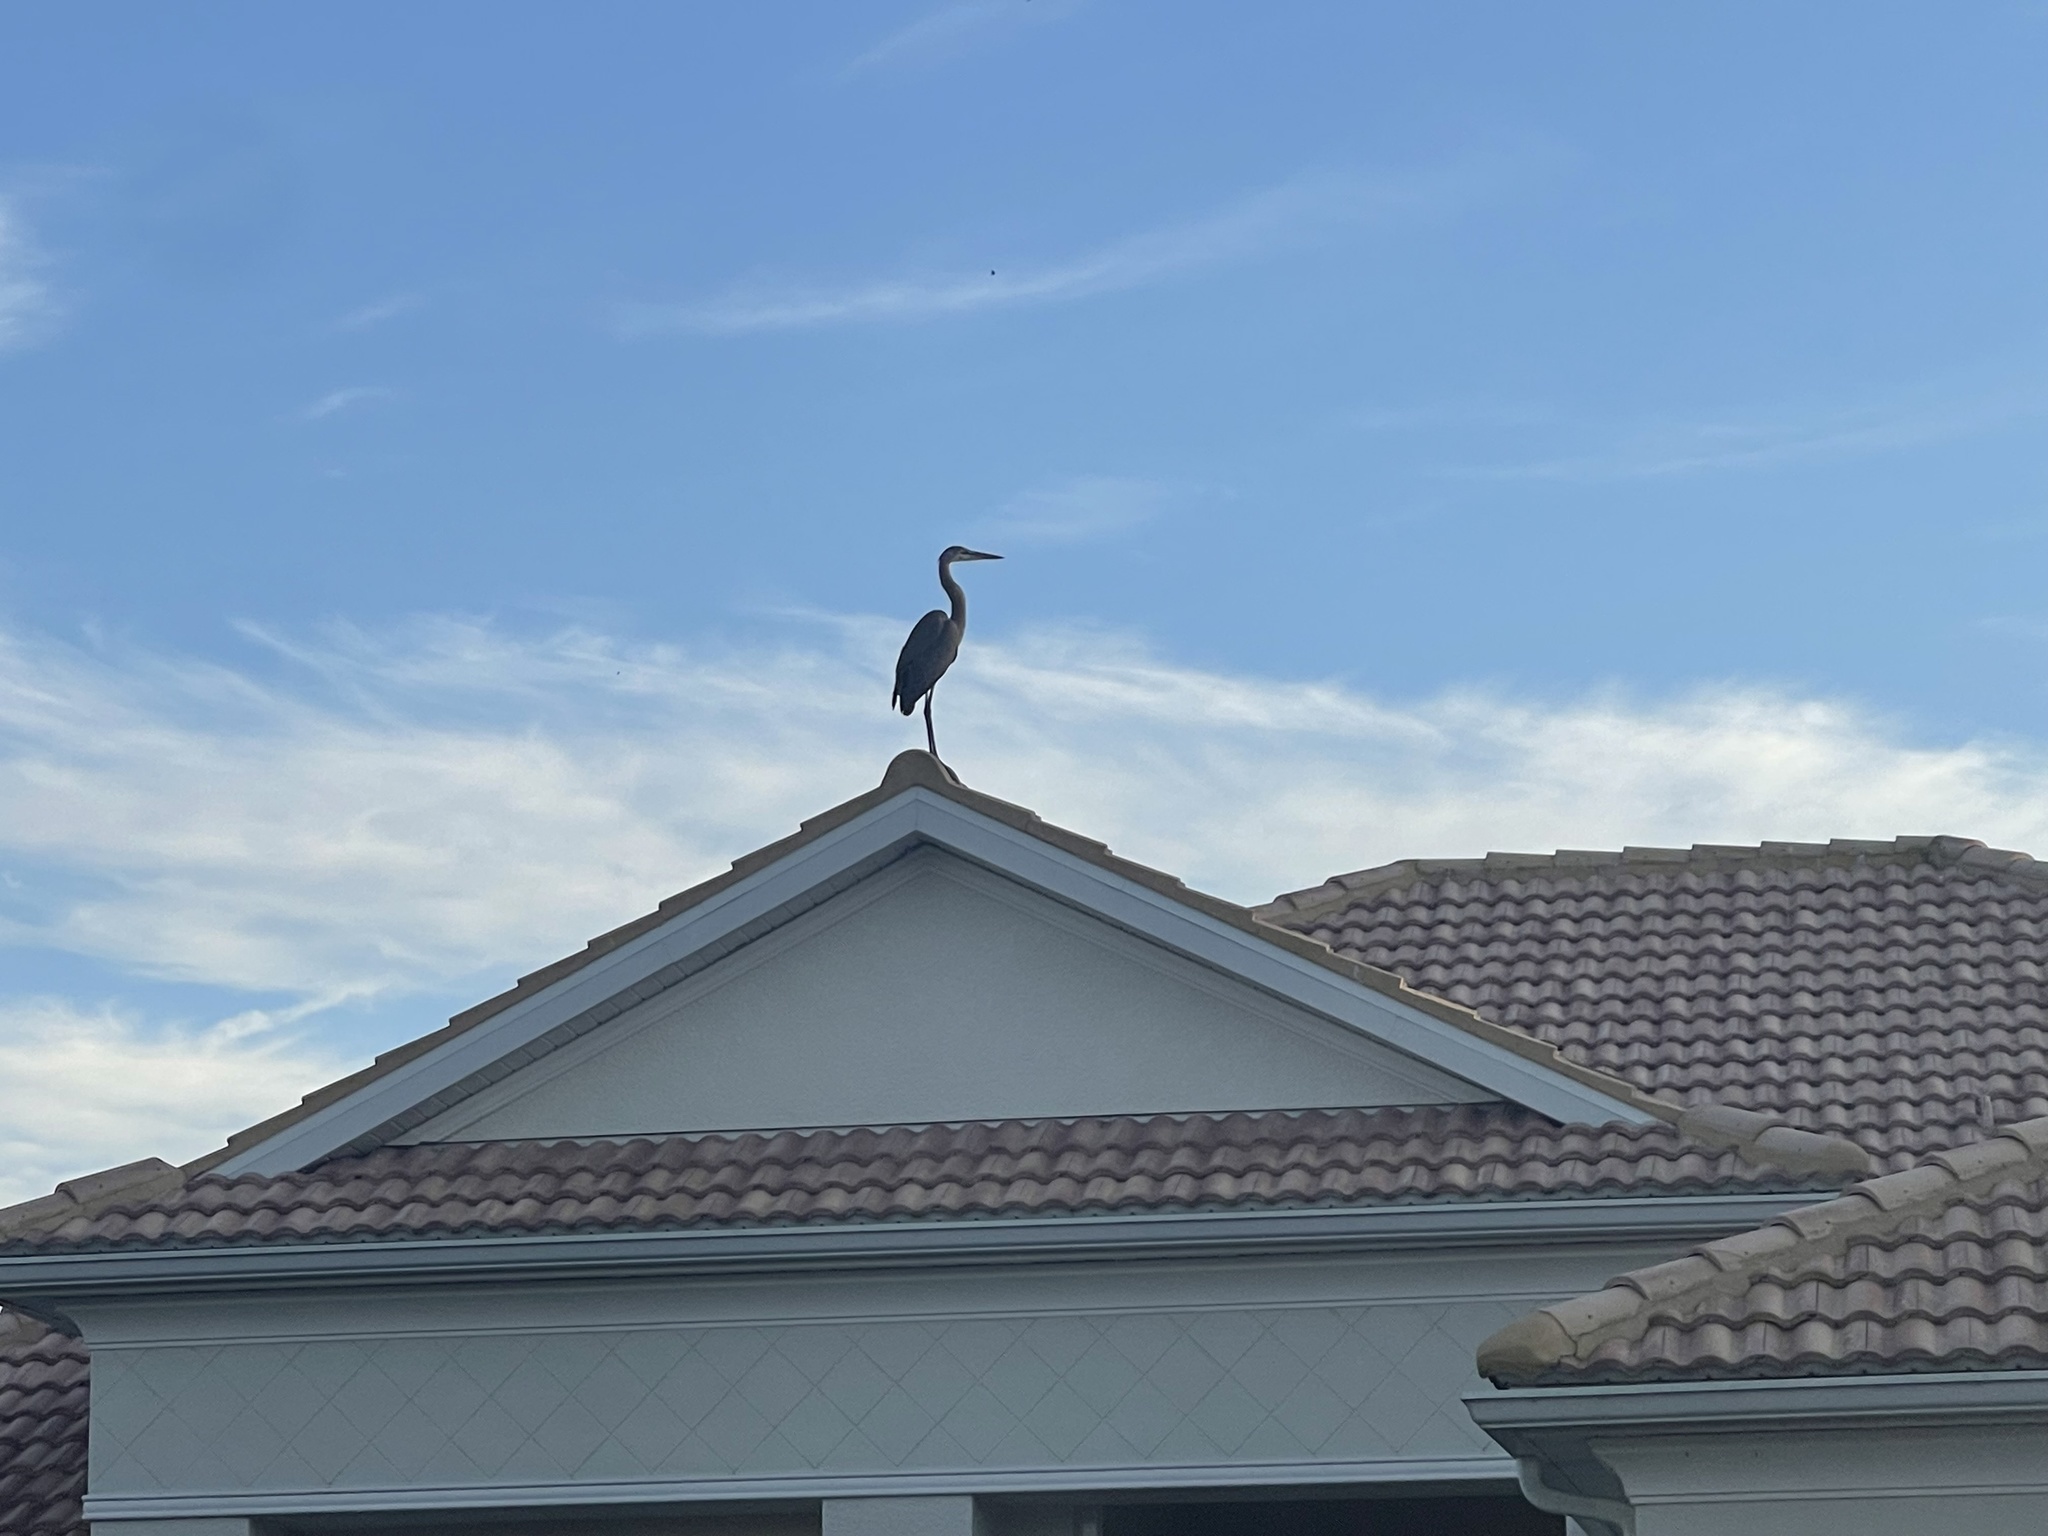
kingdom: Animalia
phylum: Chordata
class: Aves
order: Pelecaniformes
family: Ardeidae
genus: Ardea
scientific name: Ardea herodias
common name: Great blue heron
